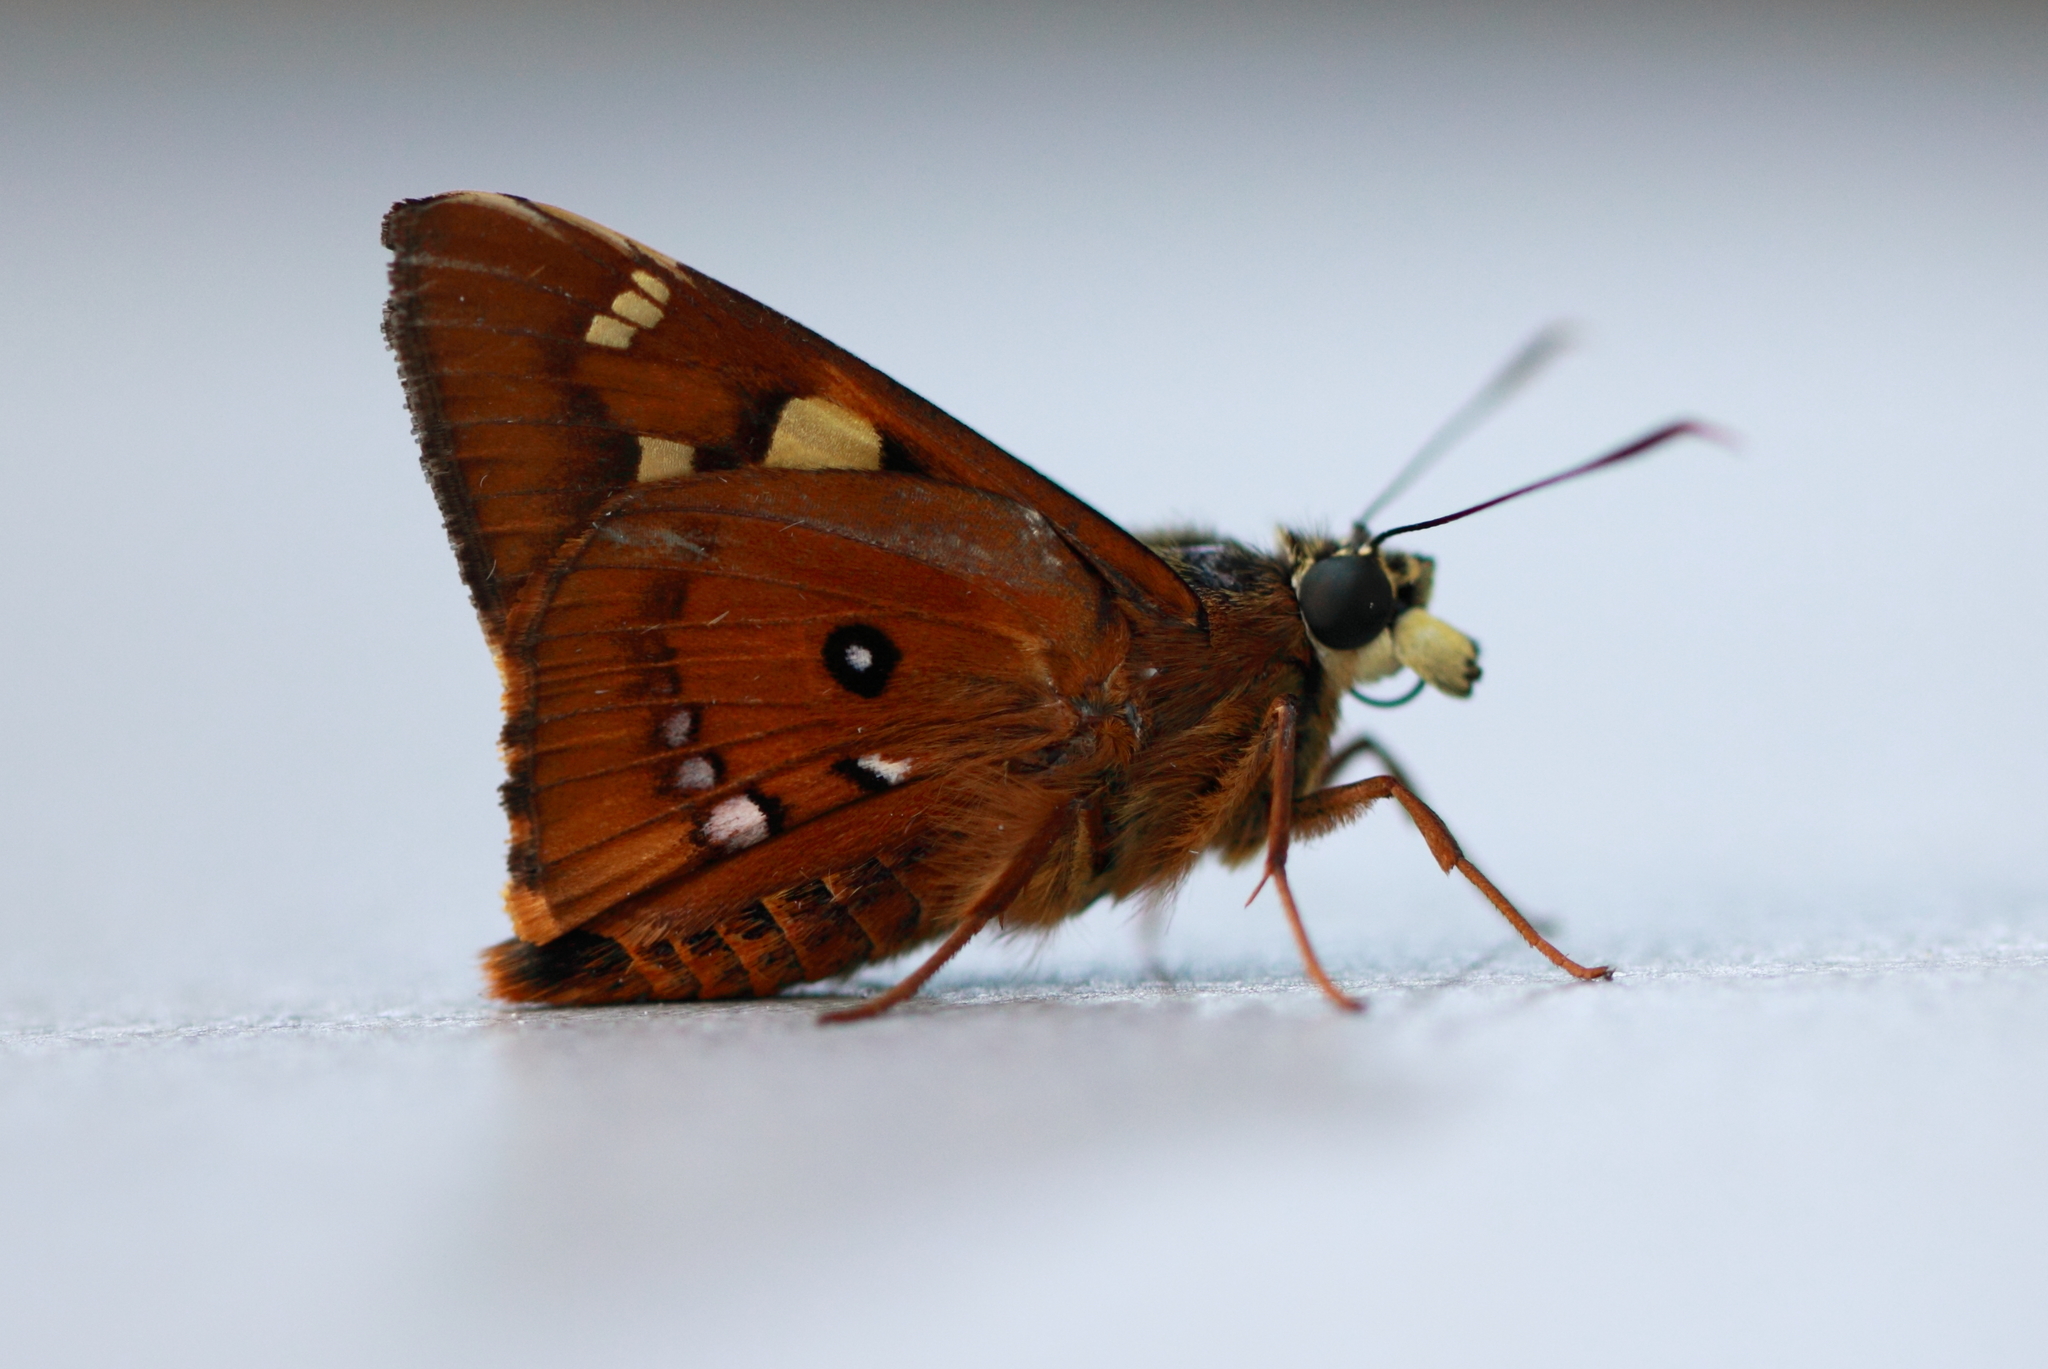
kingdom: Animalia
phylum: Arthropoda
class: Insecta
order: Lepidoptera
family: Hesperiidae
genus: Trapezites
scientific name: Trapezites symmomus
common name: Splendid ochre
